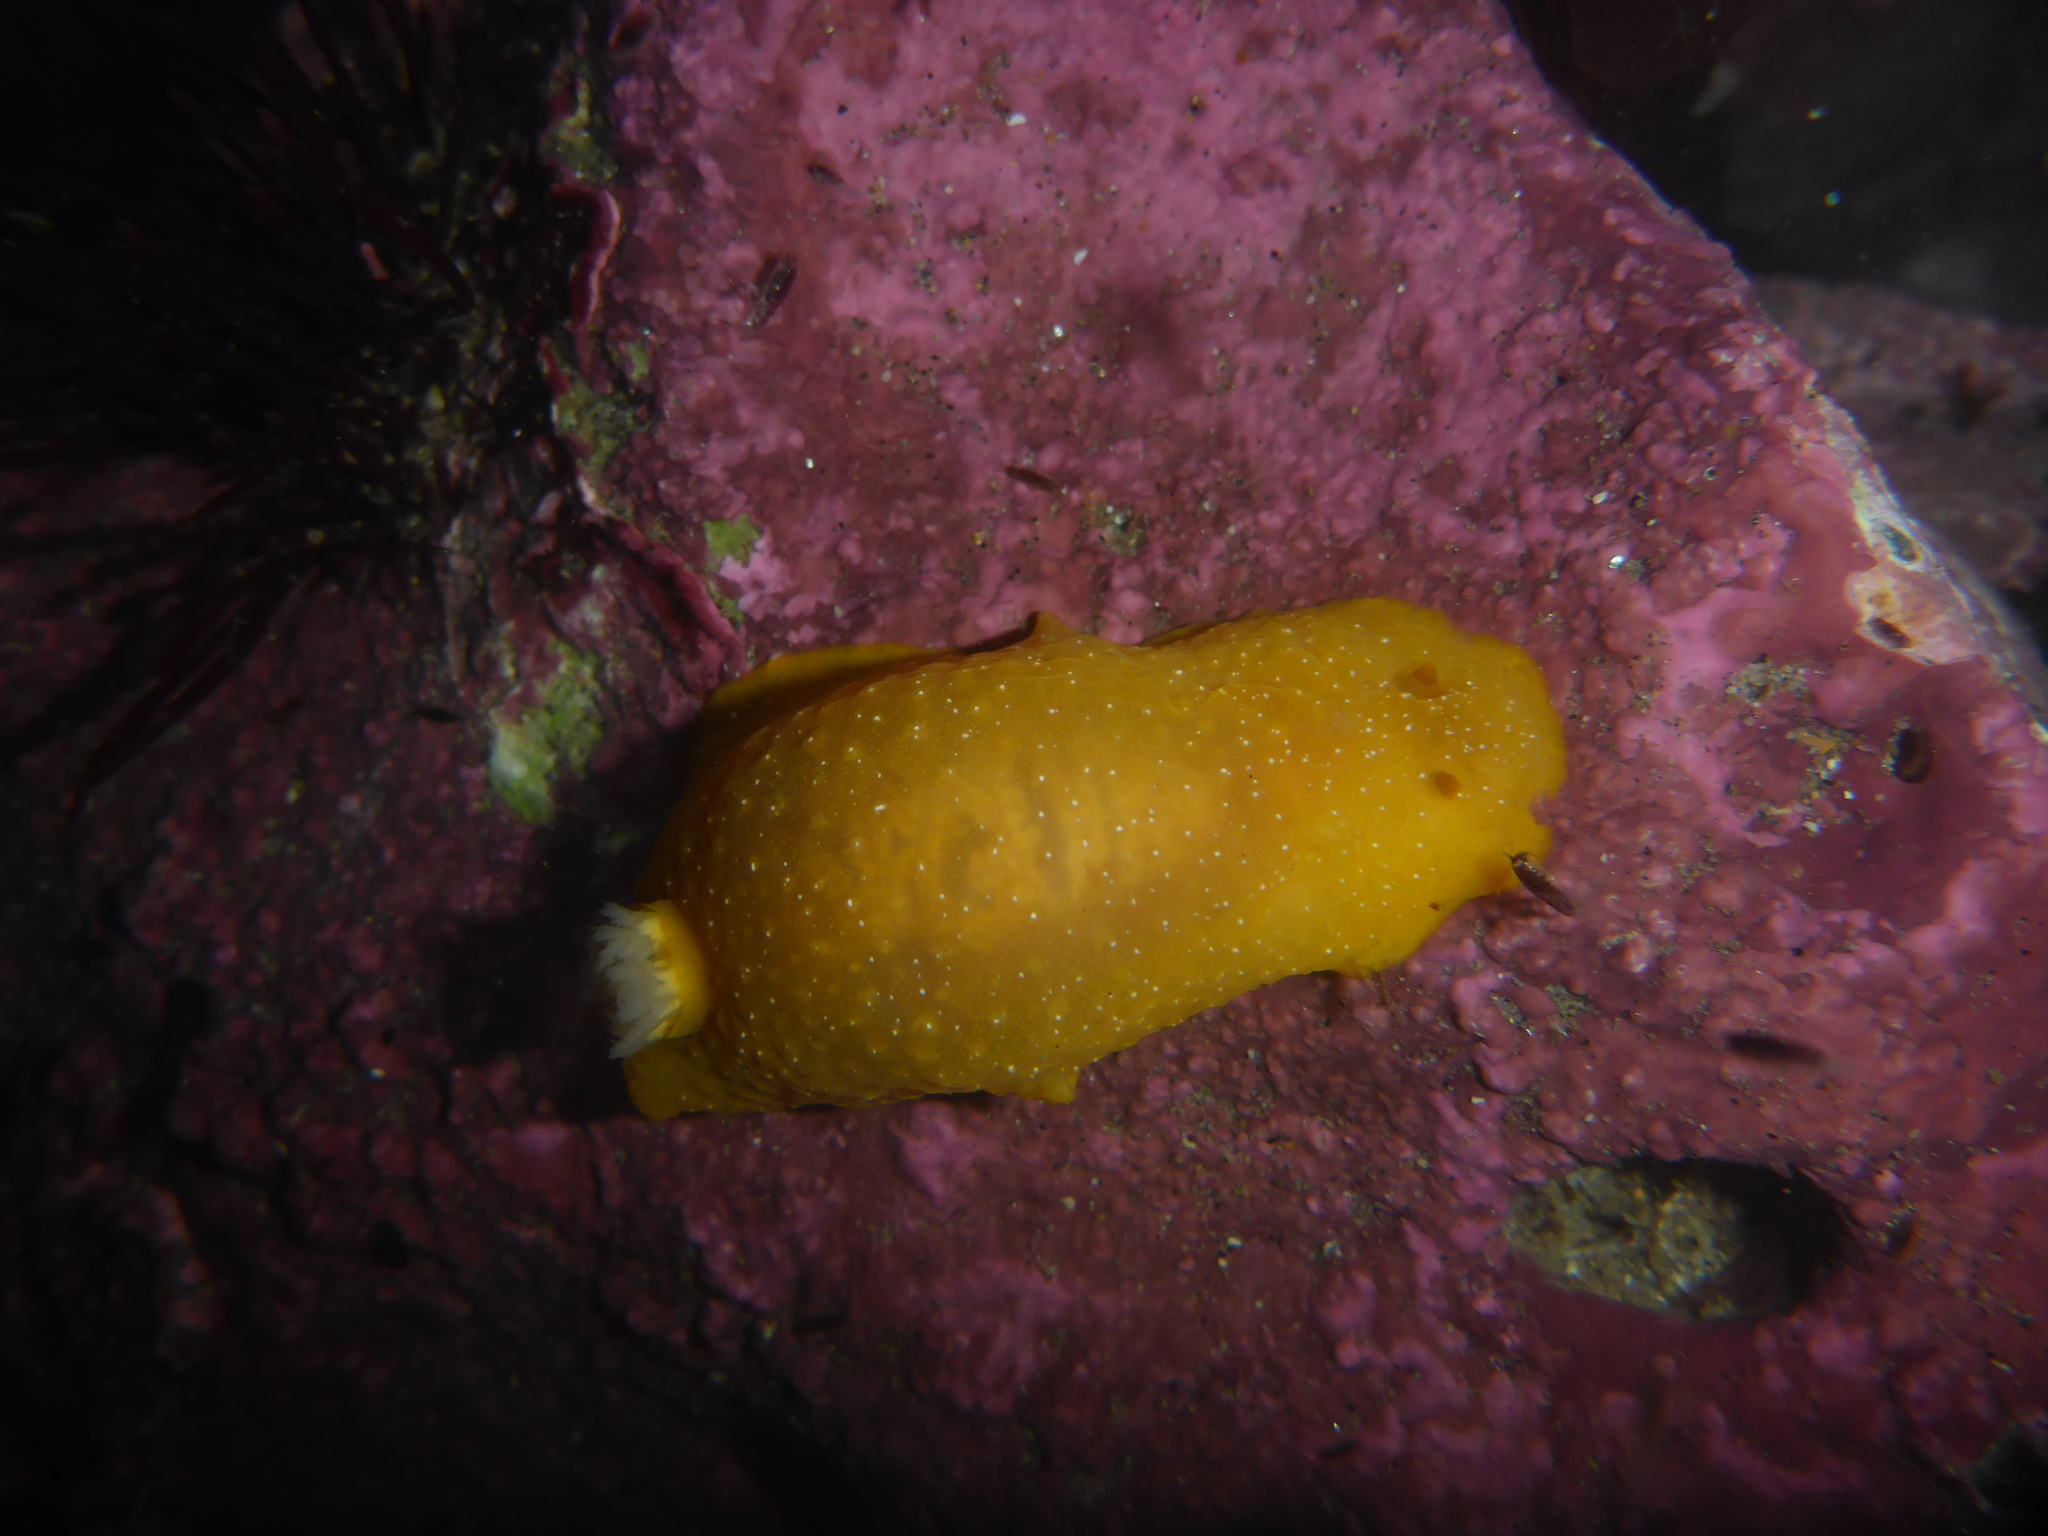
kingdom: Animalia
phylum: Mollusca
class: Gastropoda
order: Nudibranchia
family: Dendrodorididae
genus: Doriopsilla
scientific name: Doriopsilla fulva
